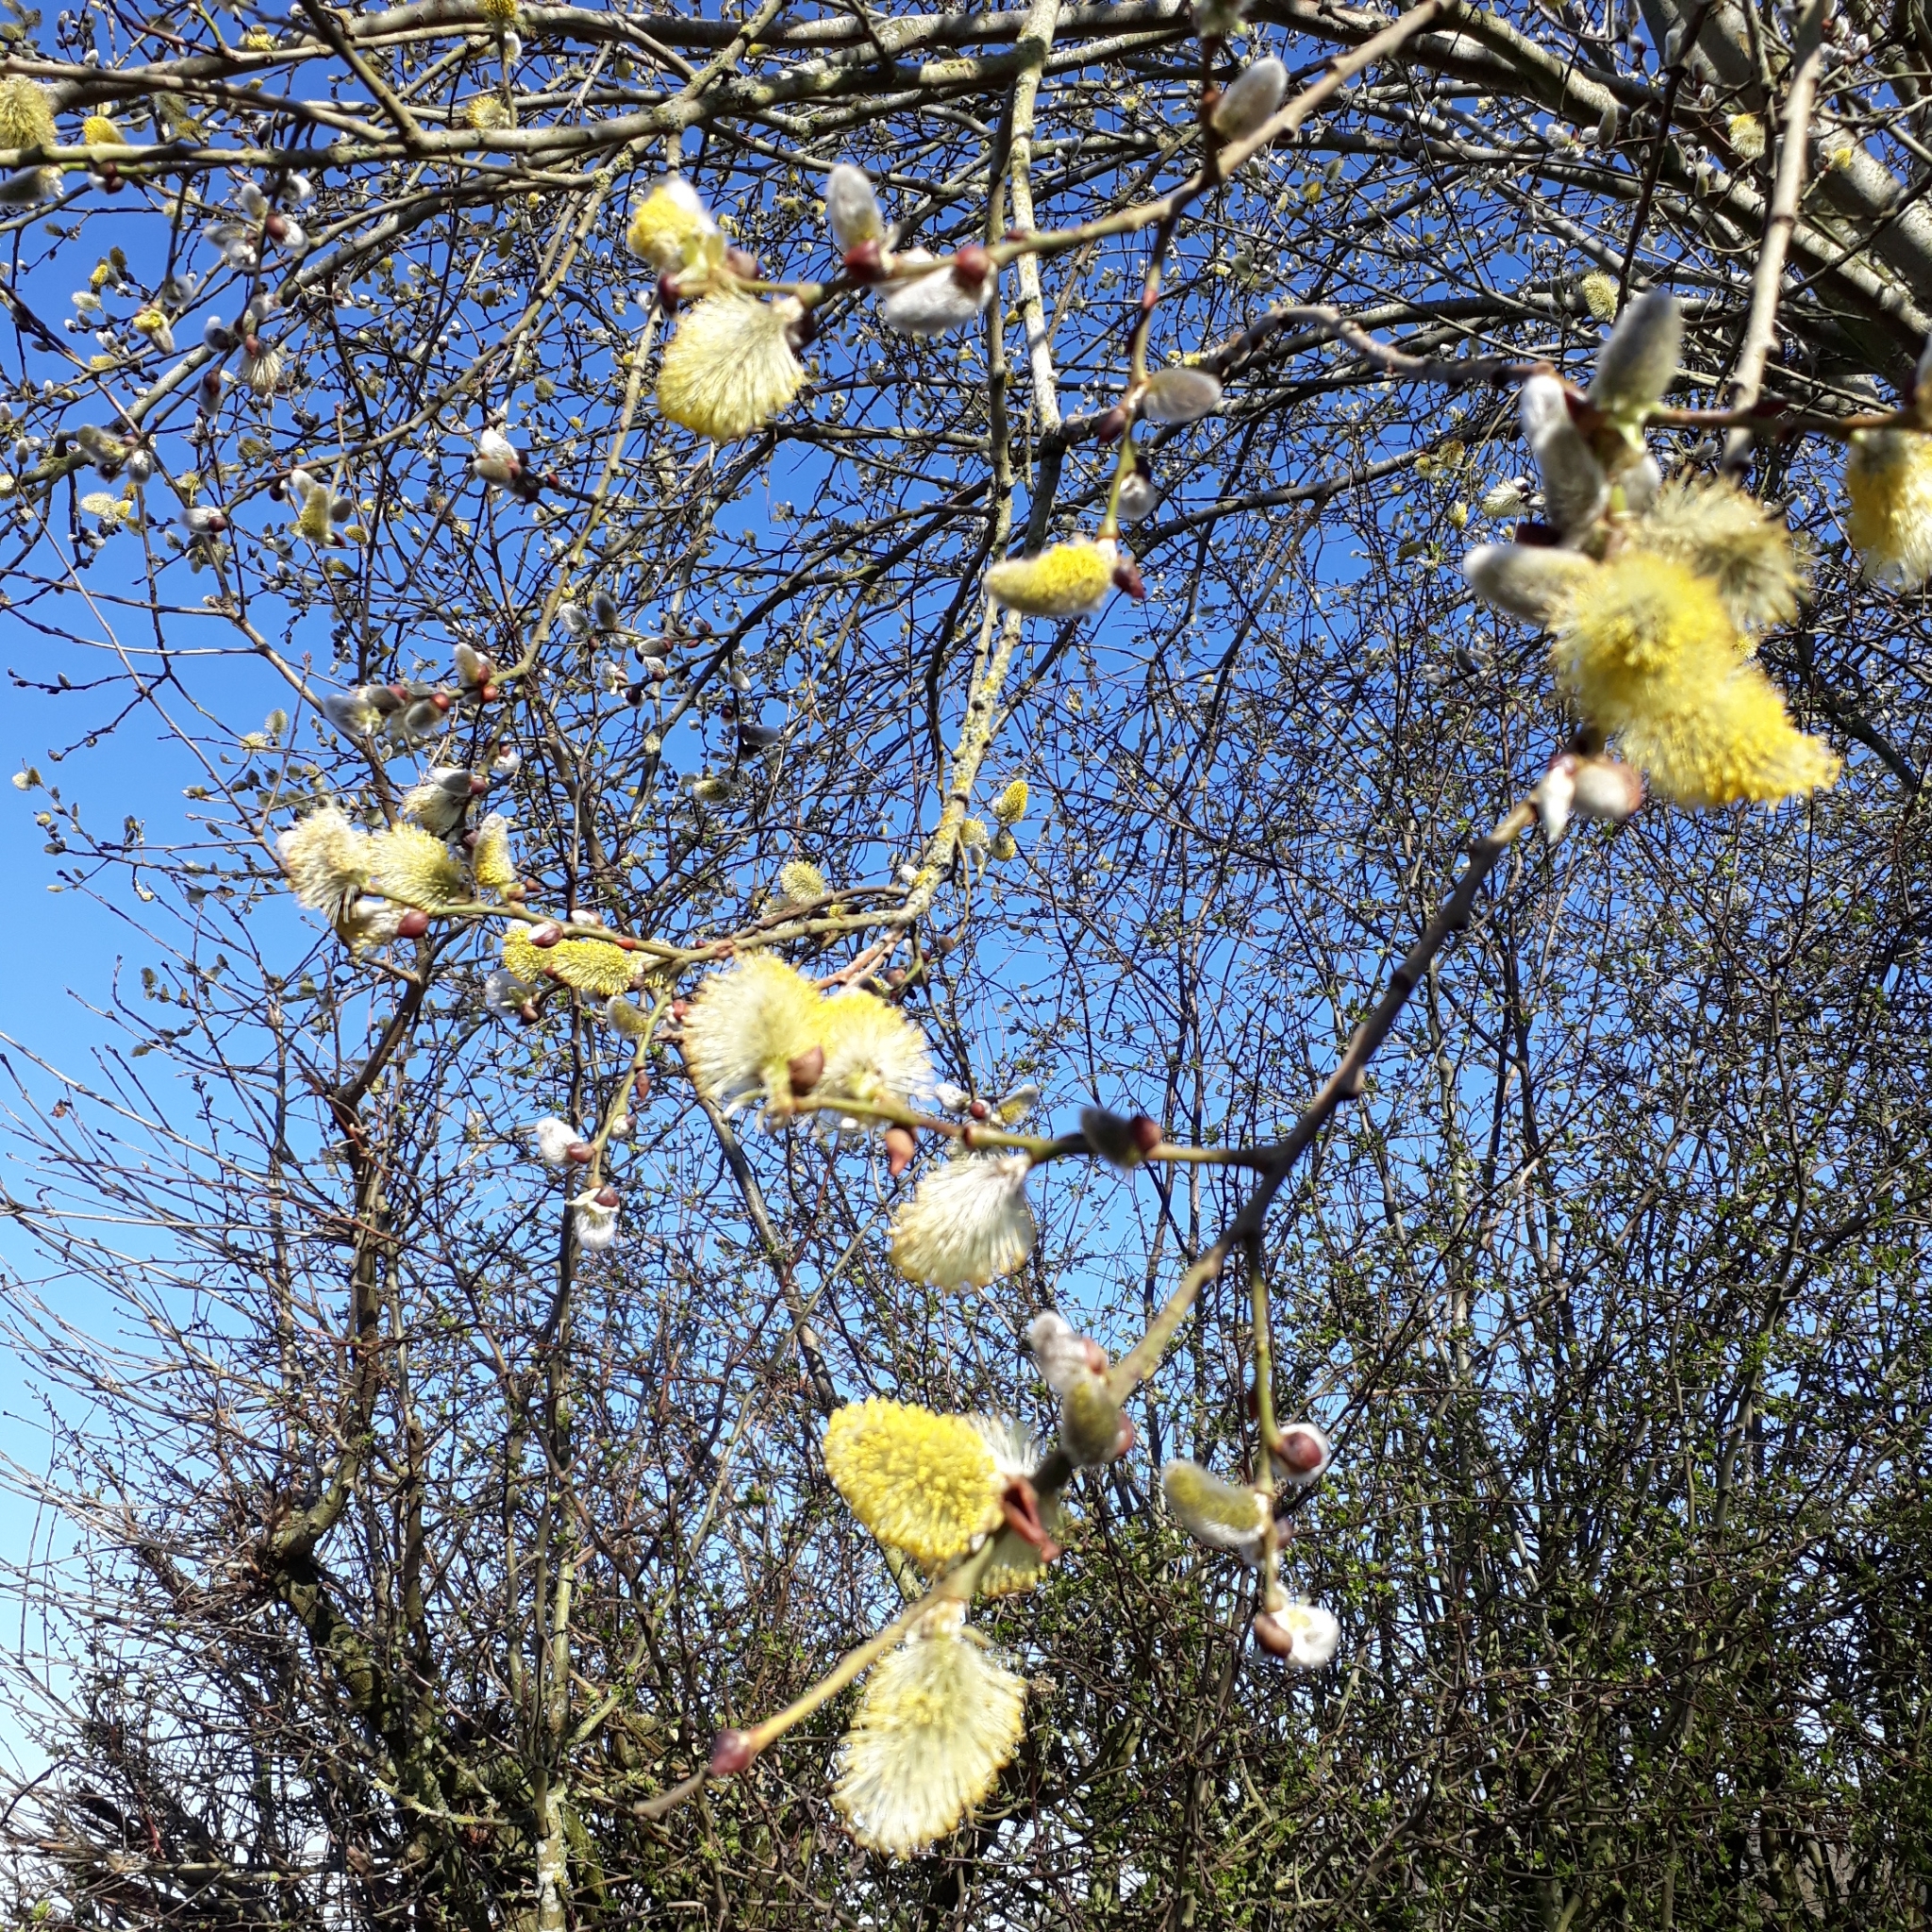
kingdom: Plantae
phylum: Tracheophyta
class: Magnoliopsida
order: Malpighiales
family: Salicaceae
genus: Salix
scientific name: Salix caprea
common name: Goat willow
